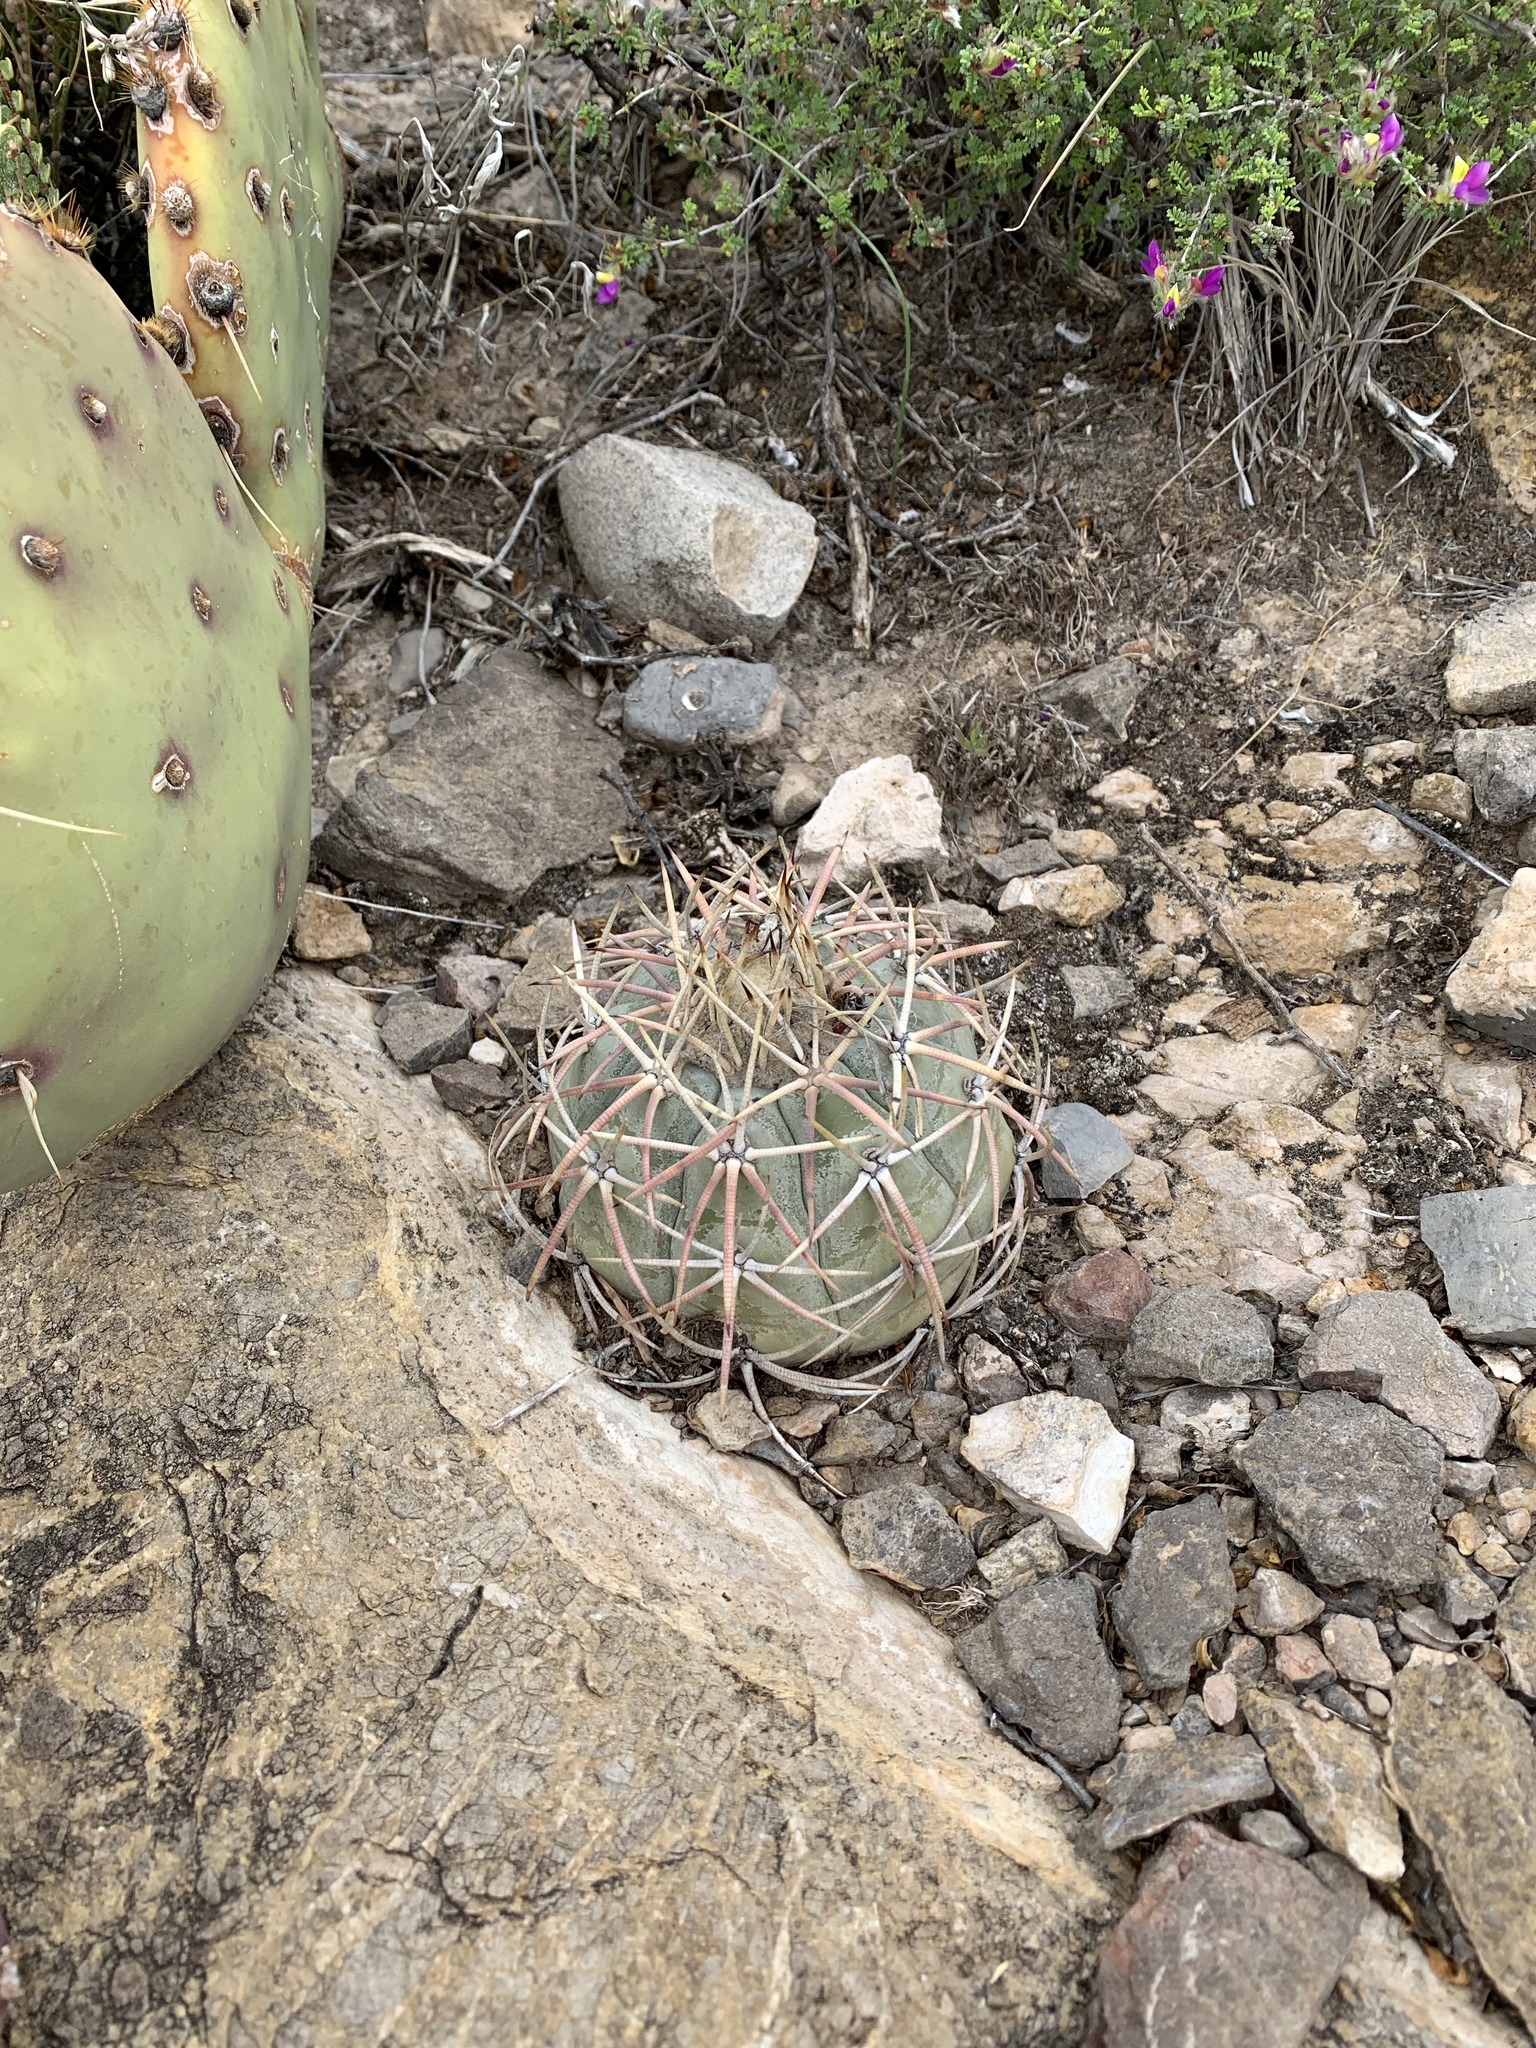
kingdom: Plantae
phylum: Tracheophyta
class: Magnoliopsida
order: Caryophyllales
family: Cactaceae
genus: Echinocactus
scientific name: Echinocactus horizonthalonius
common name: Devilshead
